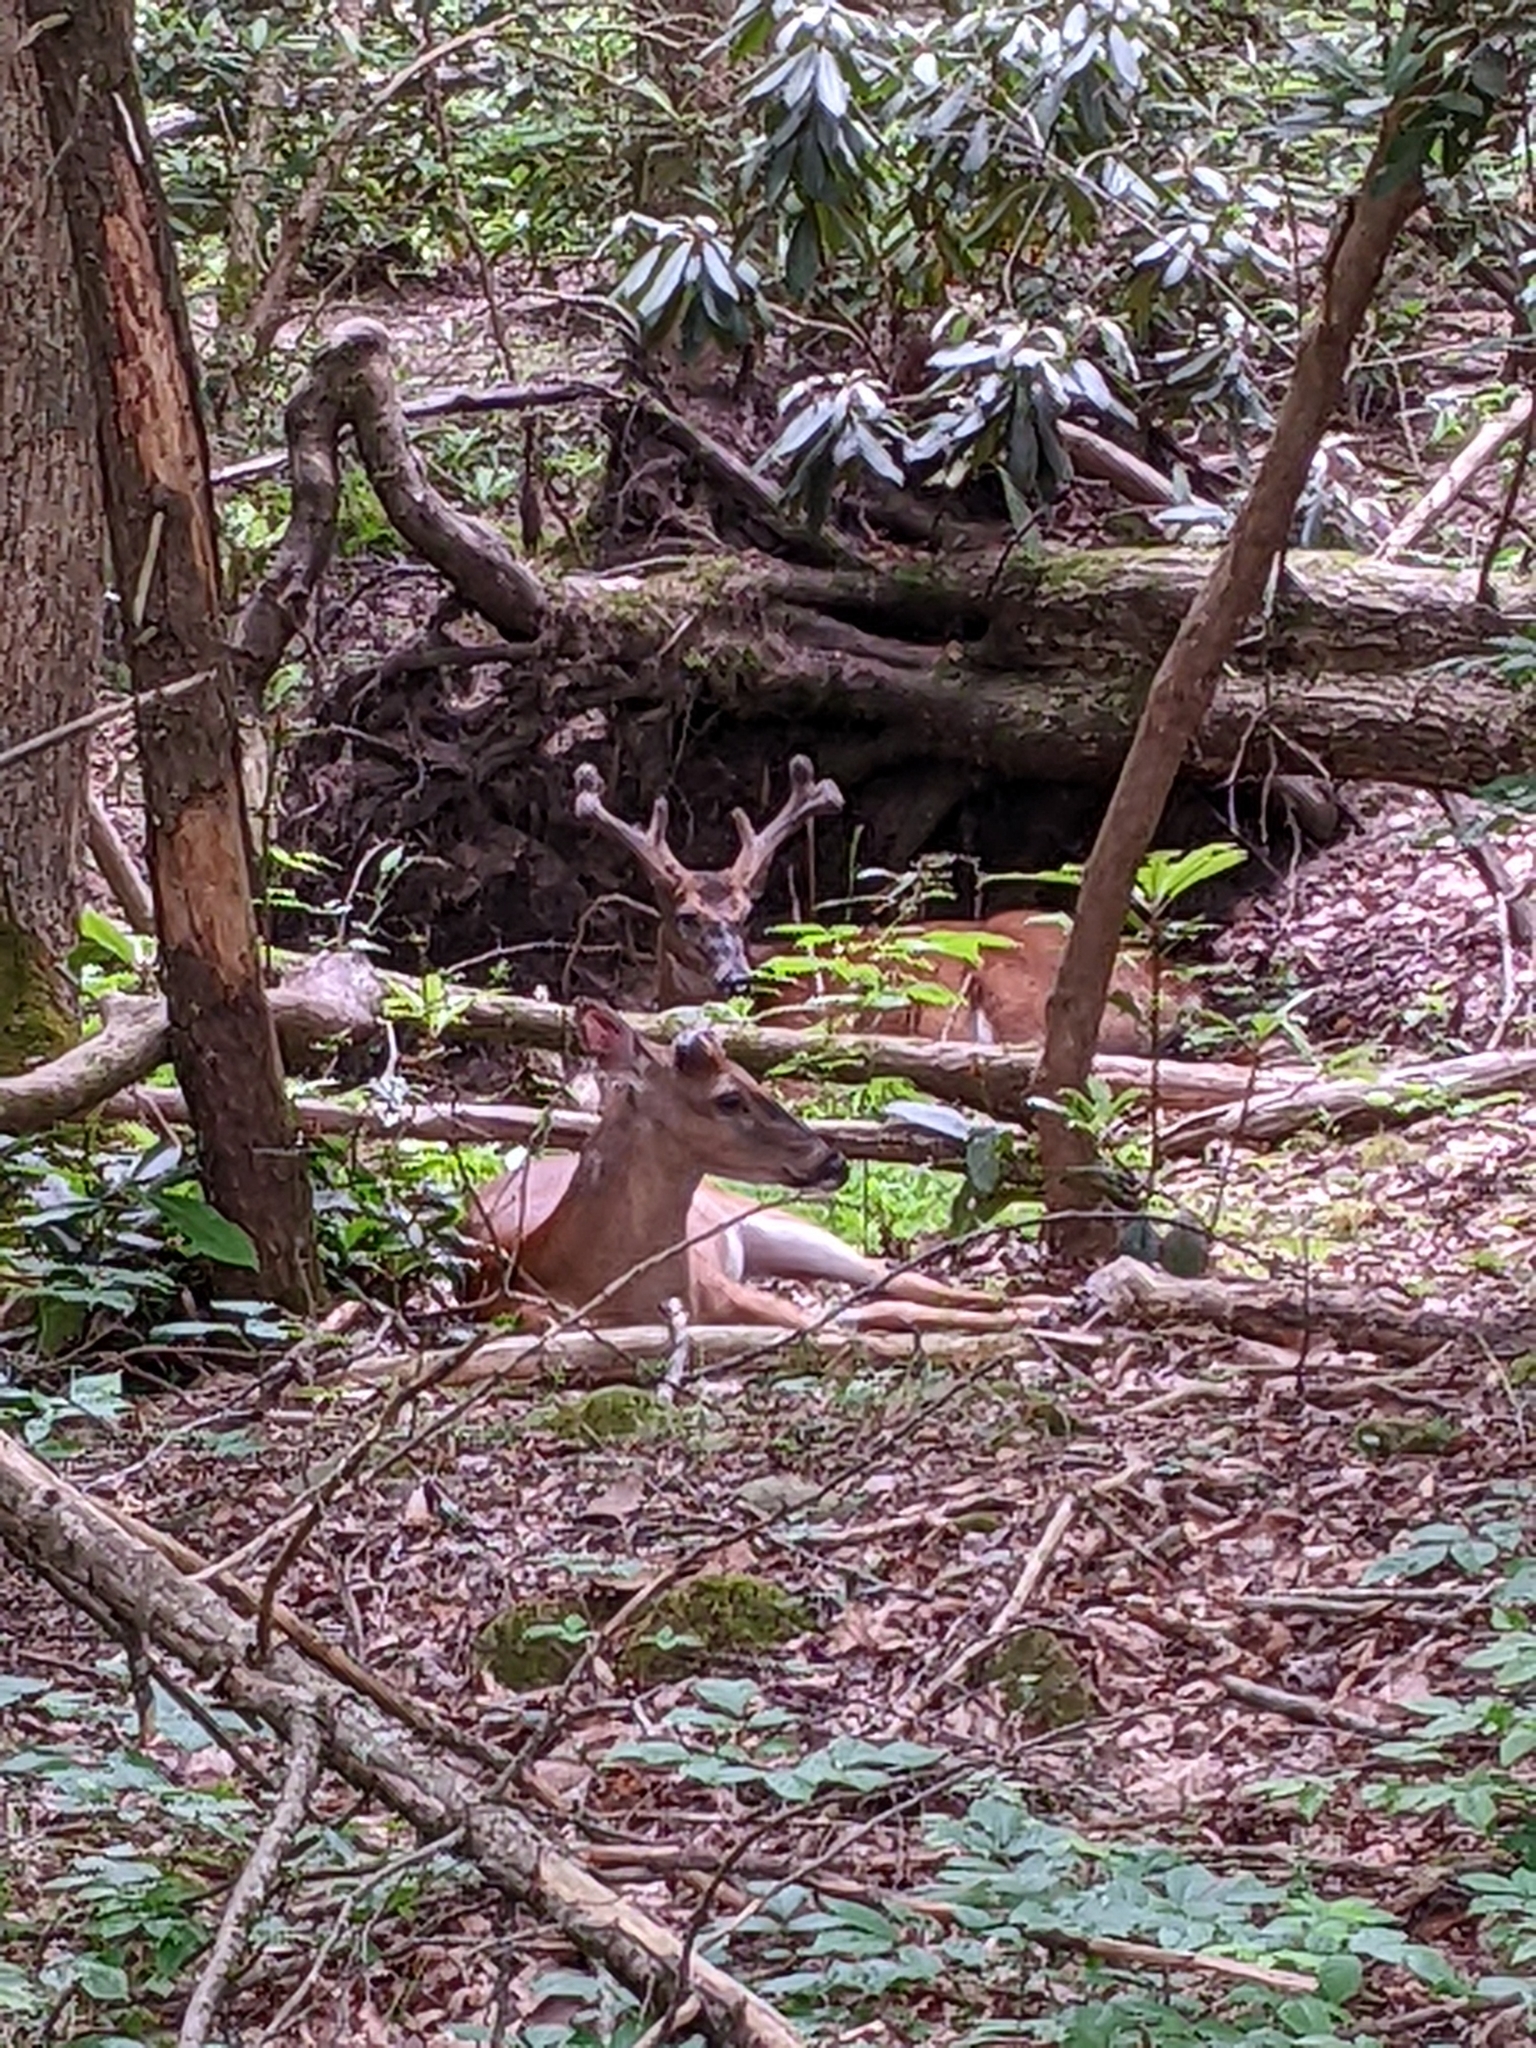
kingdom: Animalia
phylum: Chordata
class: Mammalia
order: Artiodactyla
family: Cervidae
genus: Odocoileus
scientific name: Odocoileus virginianus
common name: White-tailed deer
